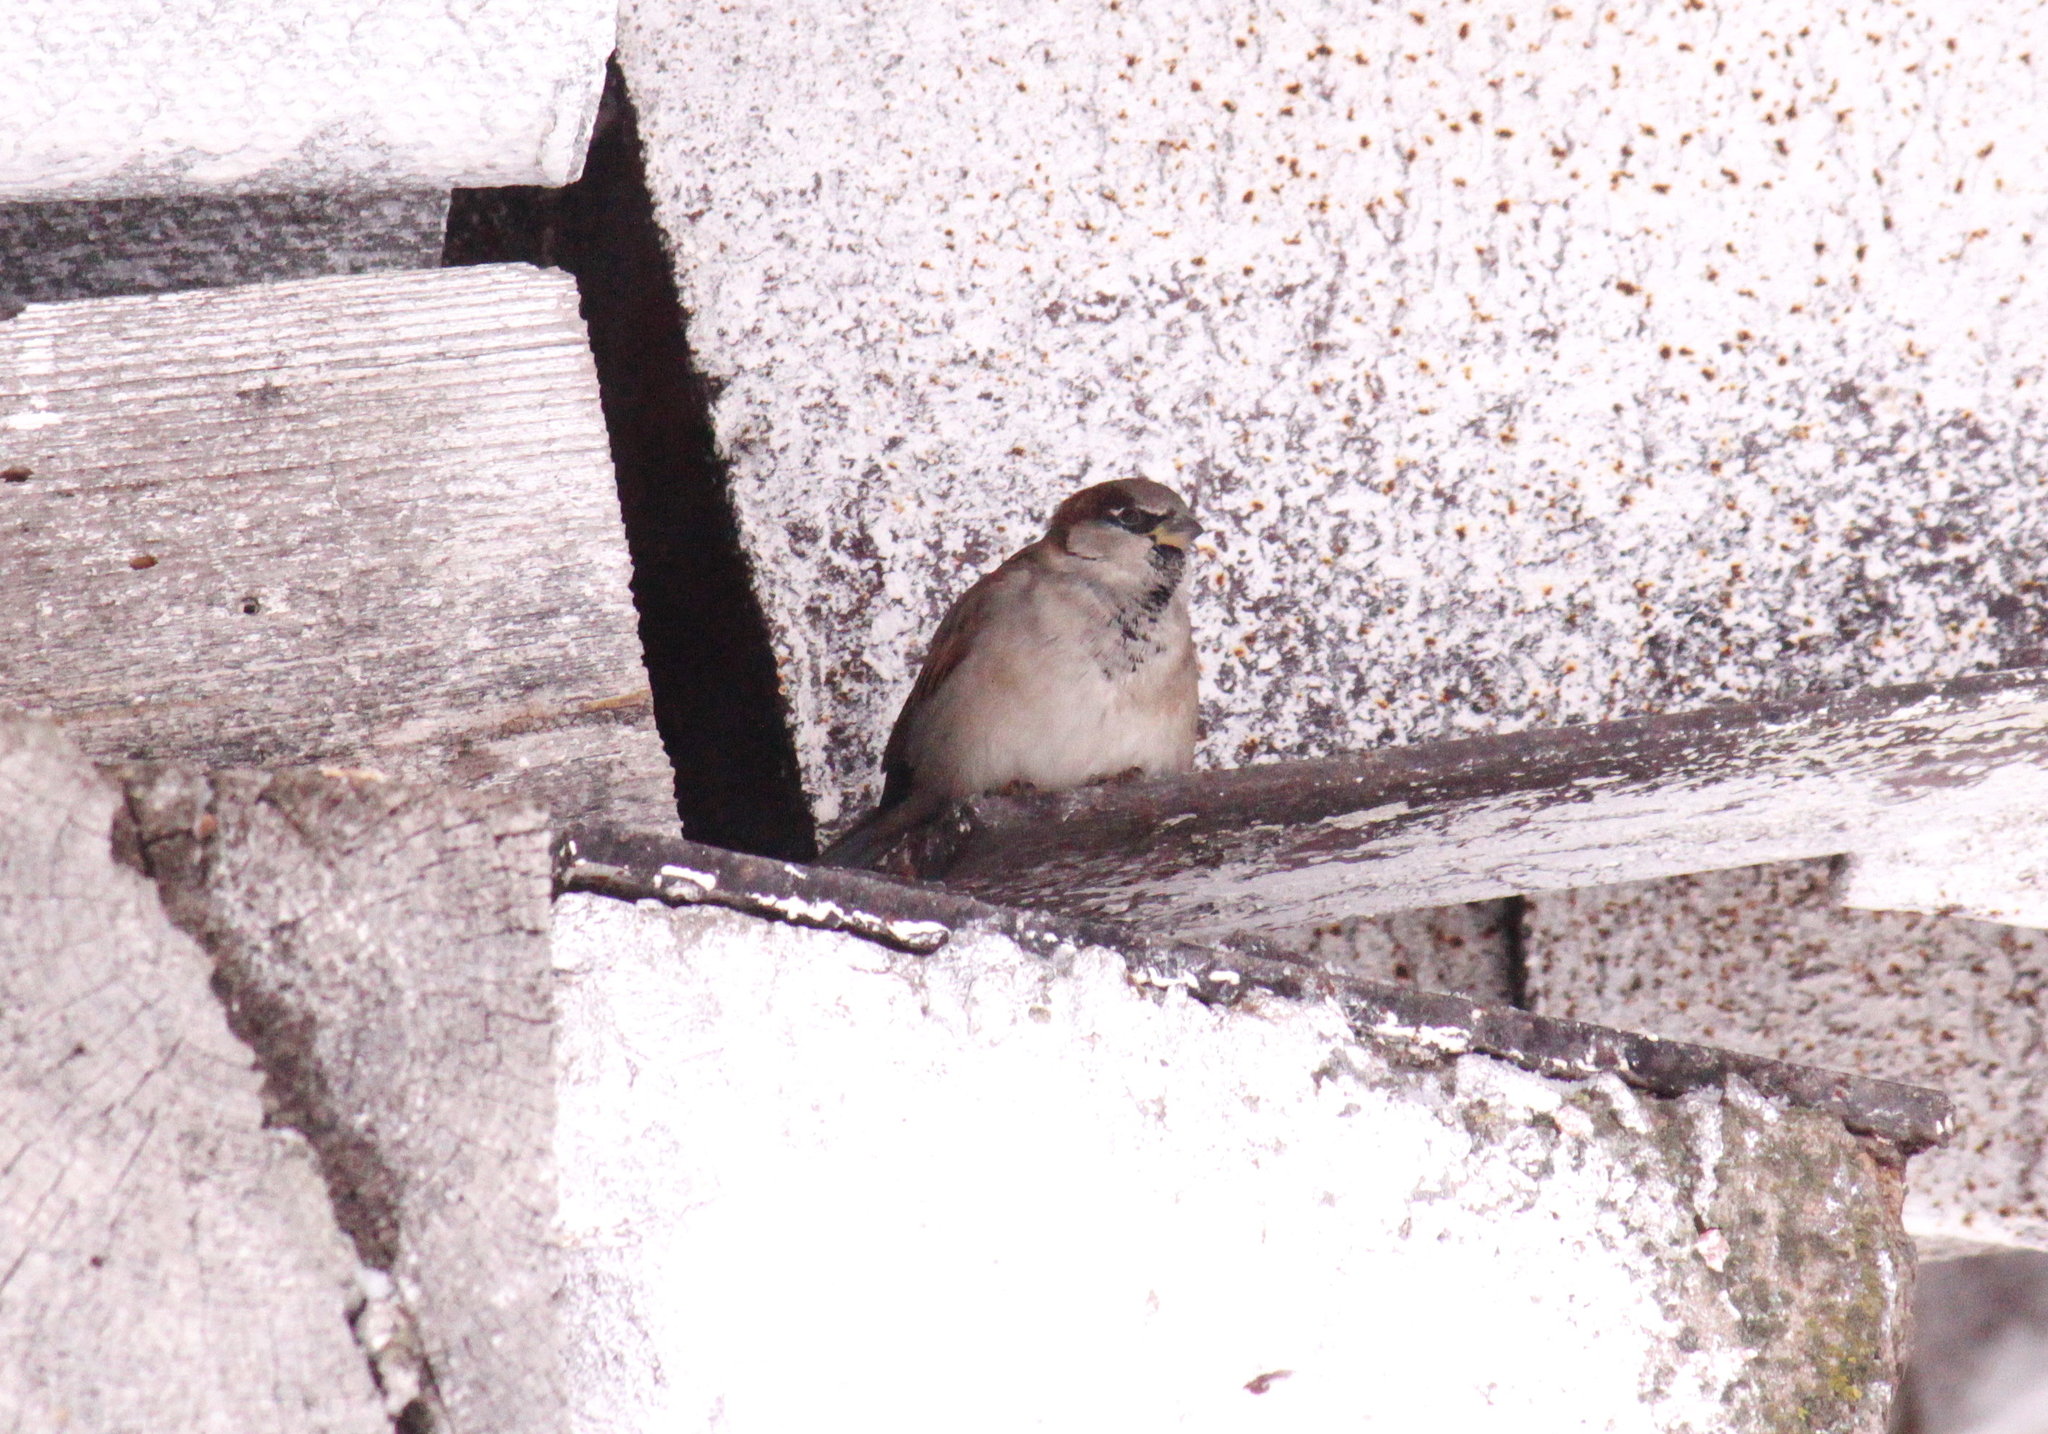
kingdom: Animalia
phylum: Chordata
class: Aves
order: Passeriformes
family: Passeridae
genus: Passer
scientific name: Passer domesticus
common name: House sparrow
